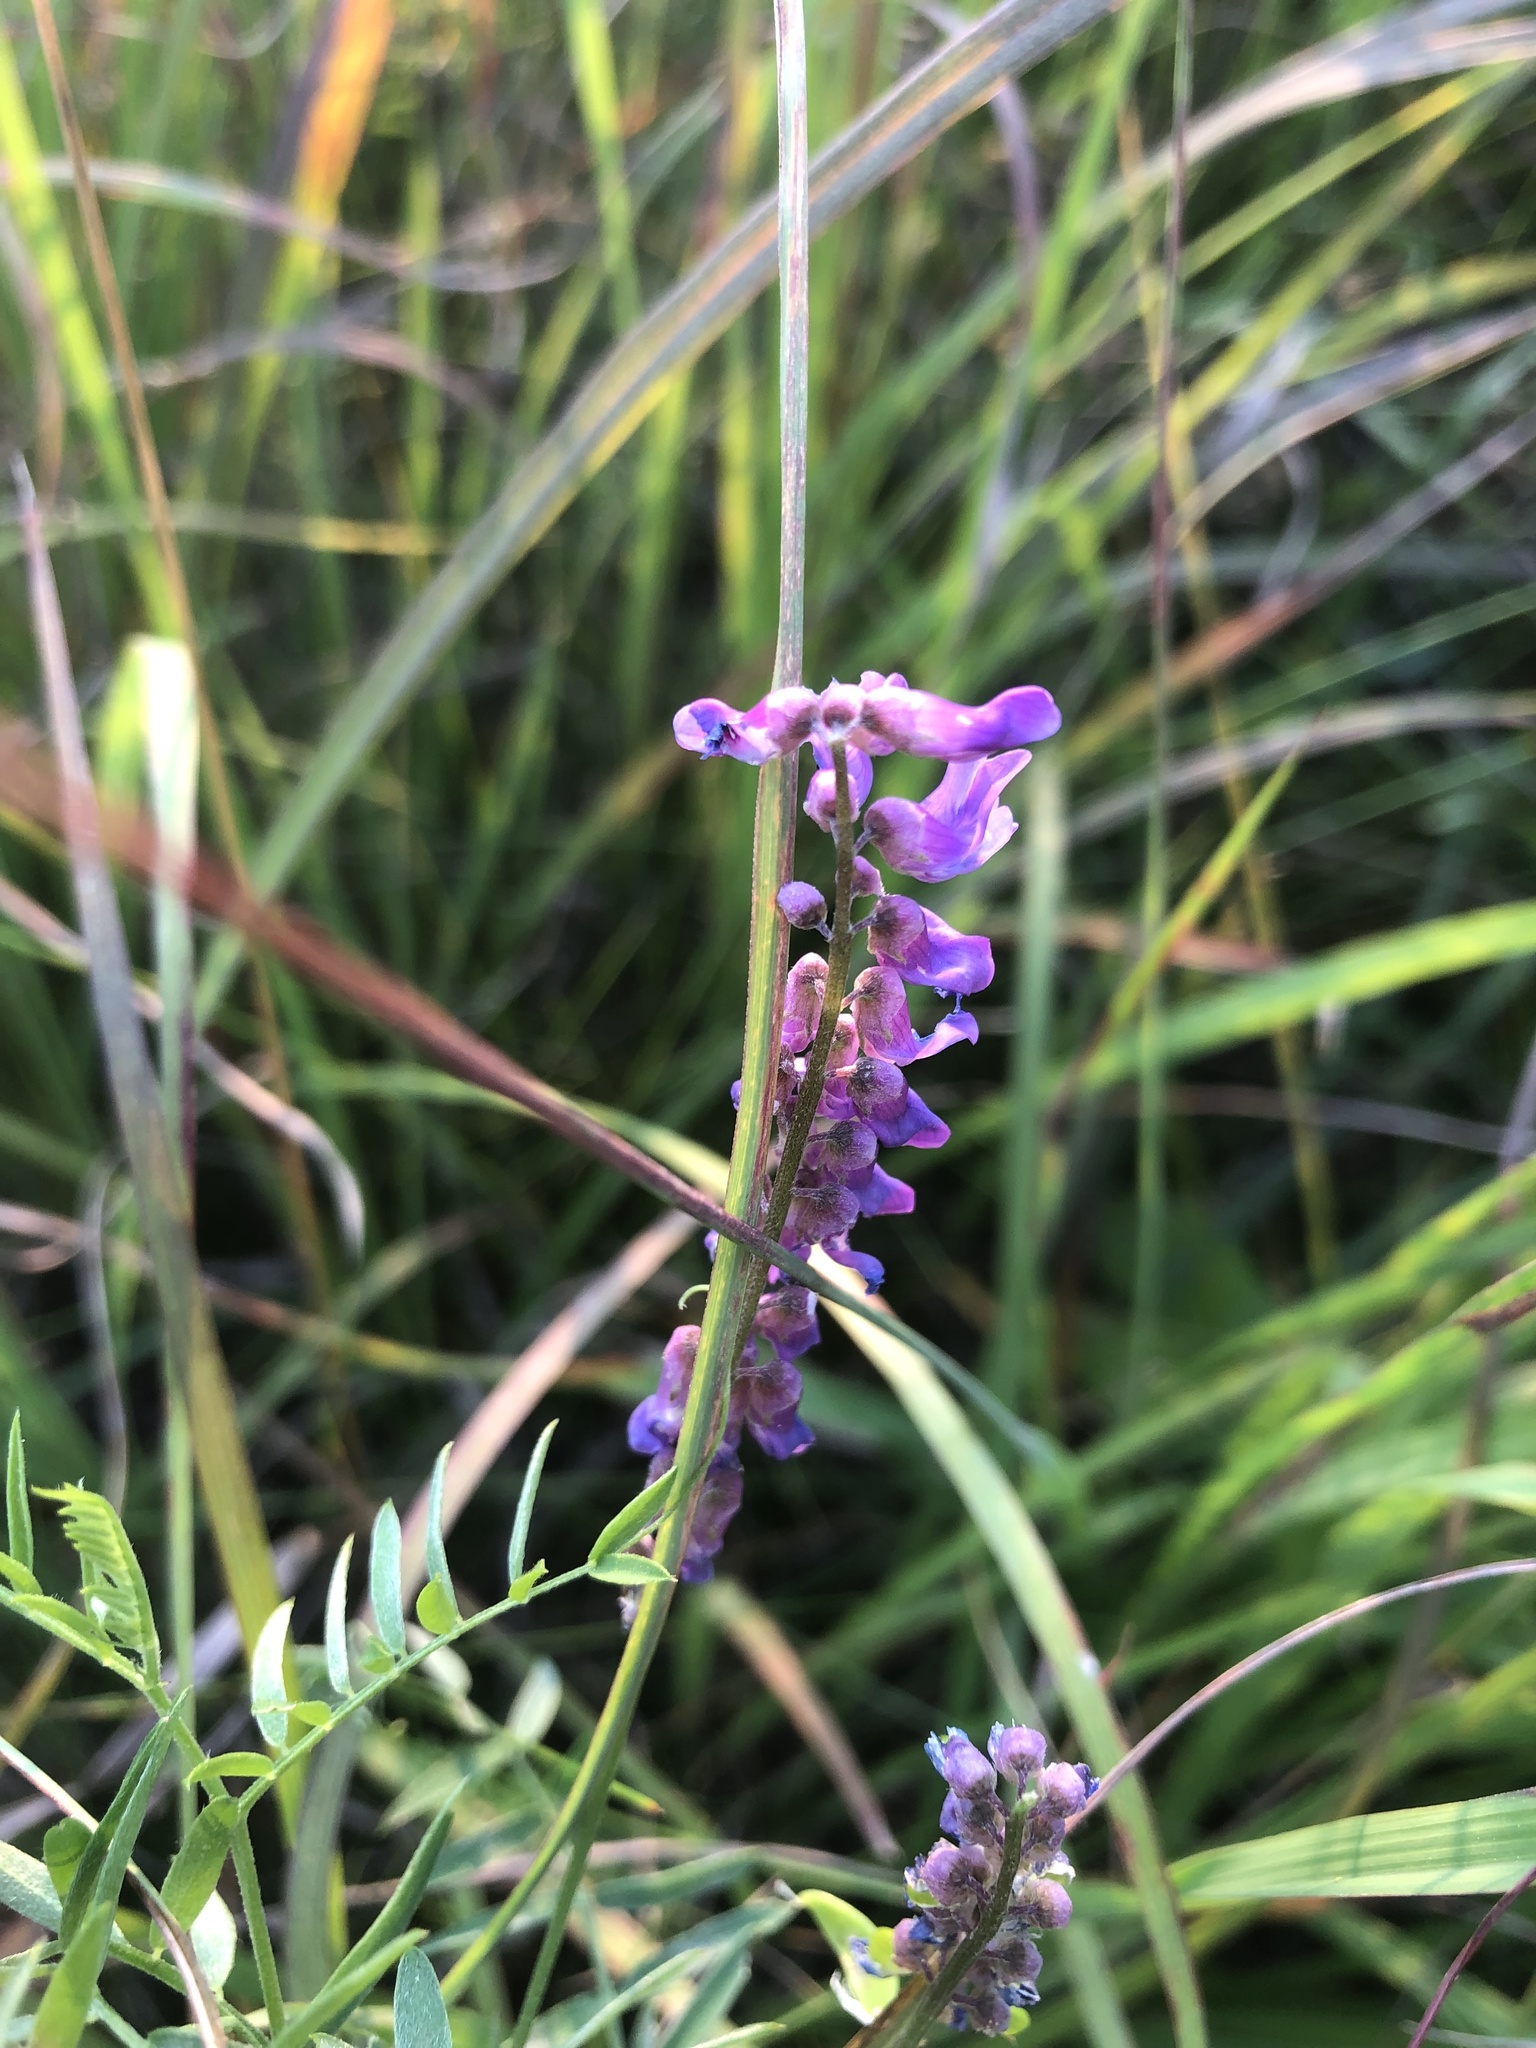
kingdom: Plantae
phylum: Tracheophyta
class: Magnoliopsida
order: Fabales
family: Fabaceae
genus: Vicia
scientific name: Vicia cracca
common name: Bird vetch
